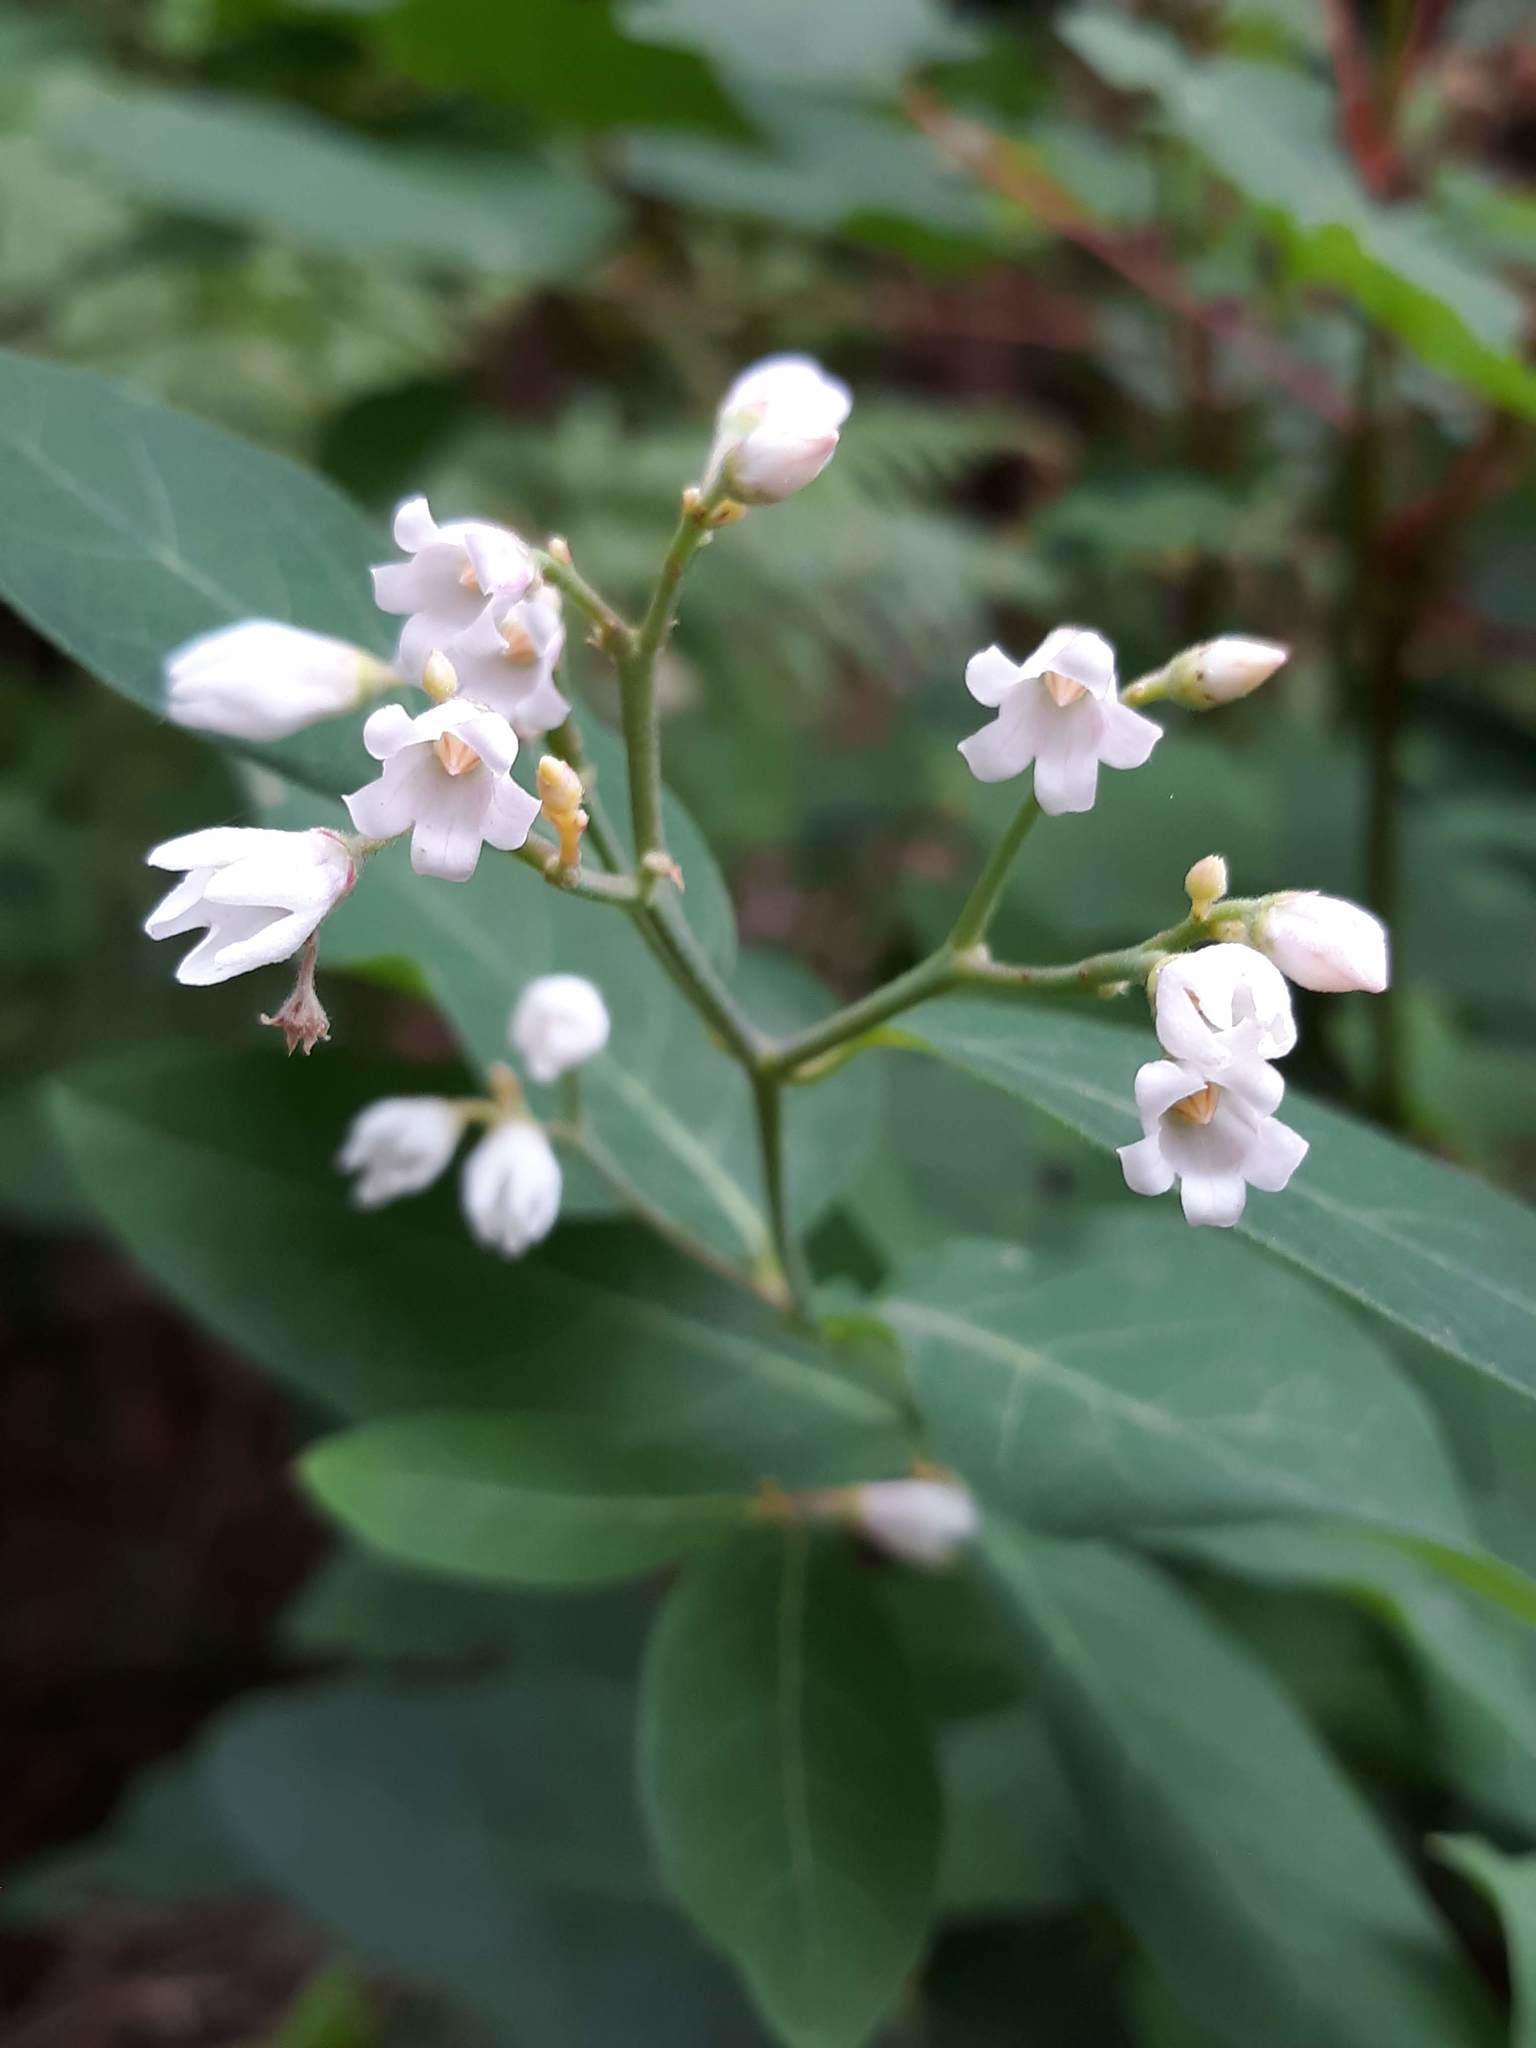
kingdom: Plantae
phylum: Tracheophyta
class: Magnoliopsida
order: Gentianales
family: Apocynaceae
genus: Apocynum
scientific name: Apocynum androsaemifolium
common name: Spreading dogbane
